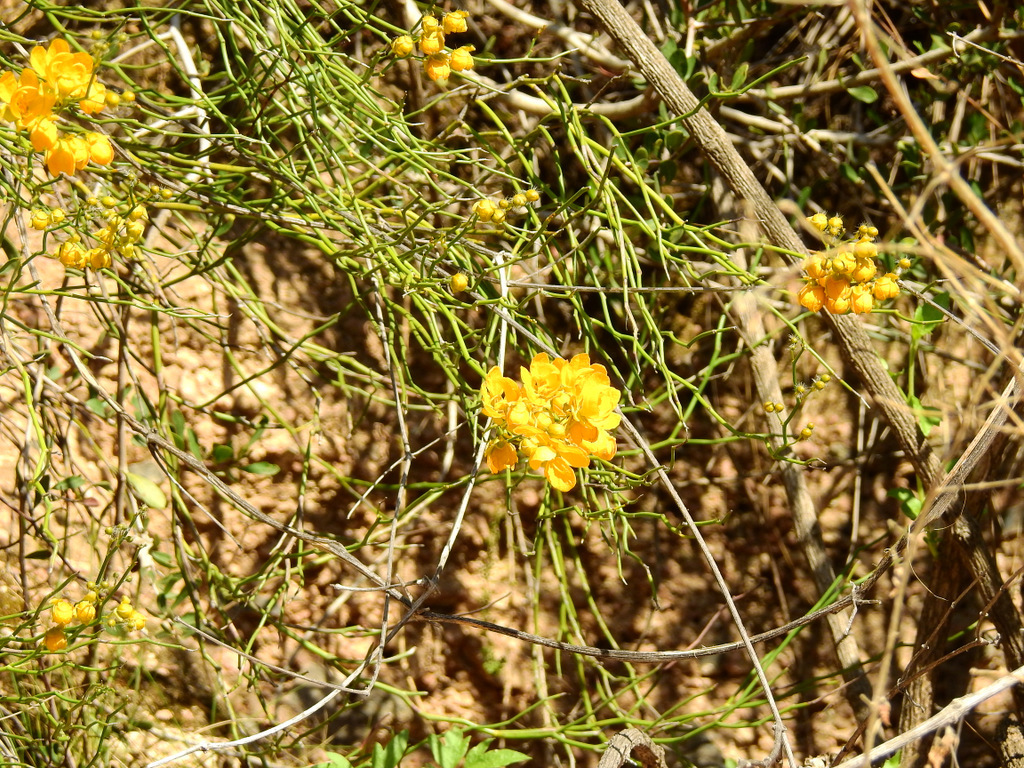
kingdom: Plantae
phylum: Tracheophyta
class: Magnoliopsida
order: Fabales
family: Fabaceae
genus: Senna
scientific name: Senna aphylla
